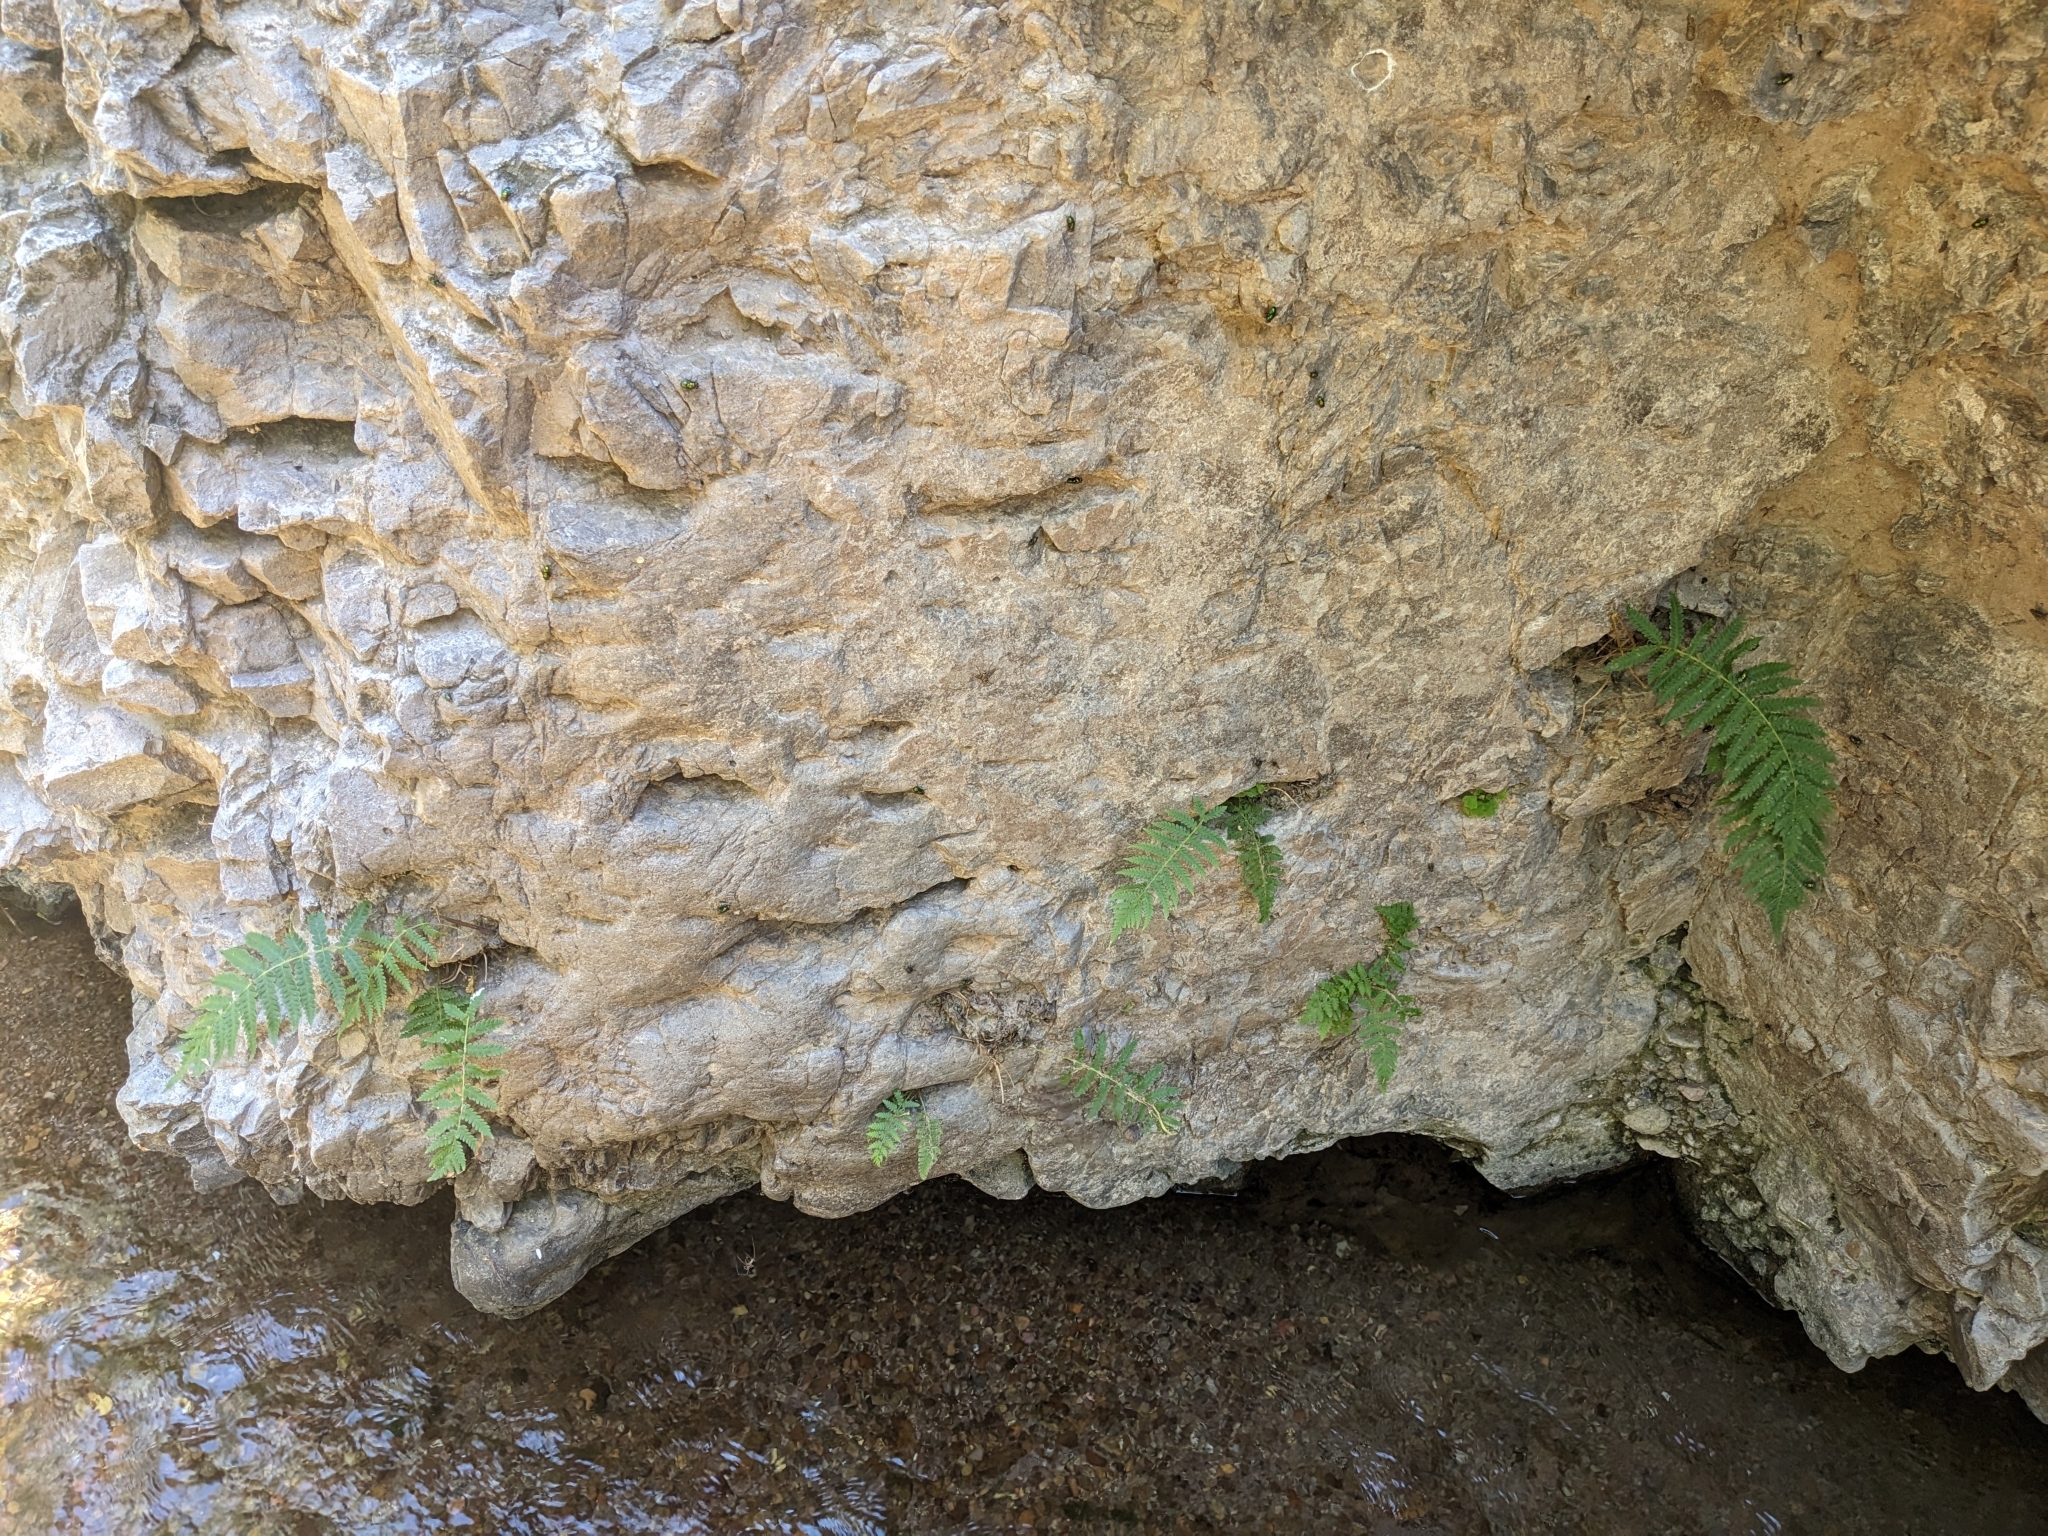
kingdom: Plantae
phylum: Tracheophyta
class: Polypodiopsida
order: Polypodiales
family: Thelypteridaceae
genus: Pelazoneuron
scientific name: Pelazoneuron puberulum
